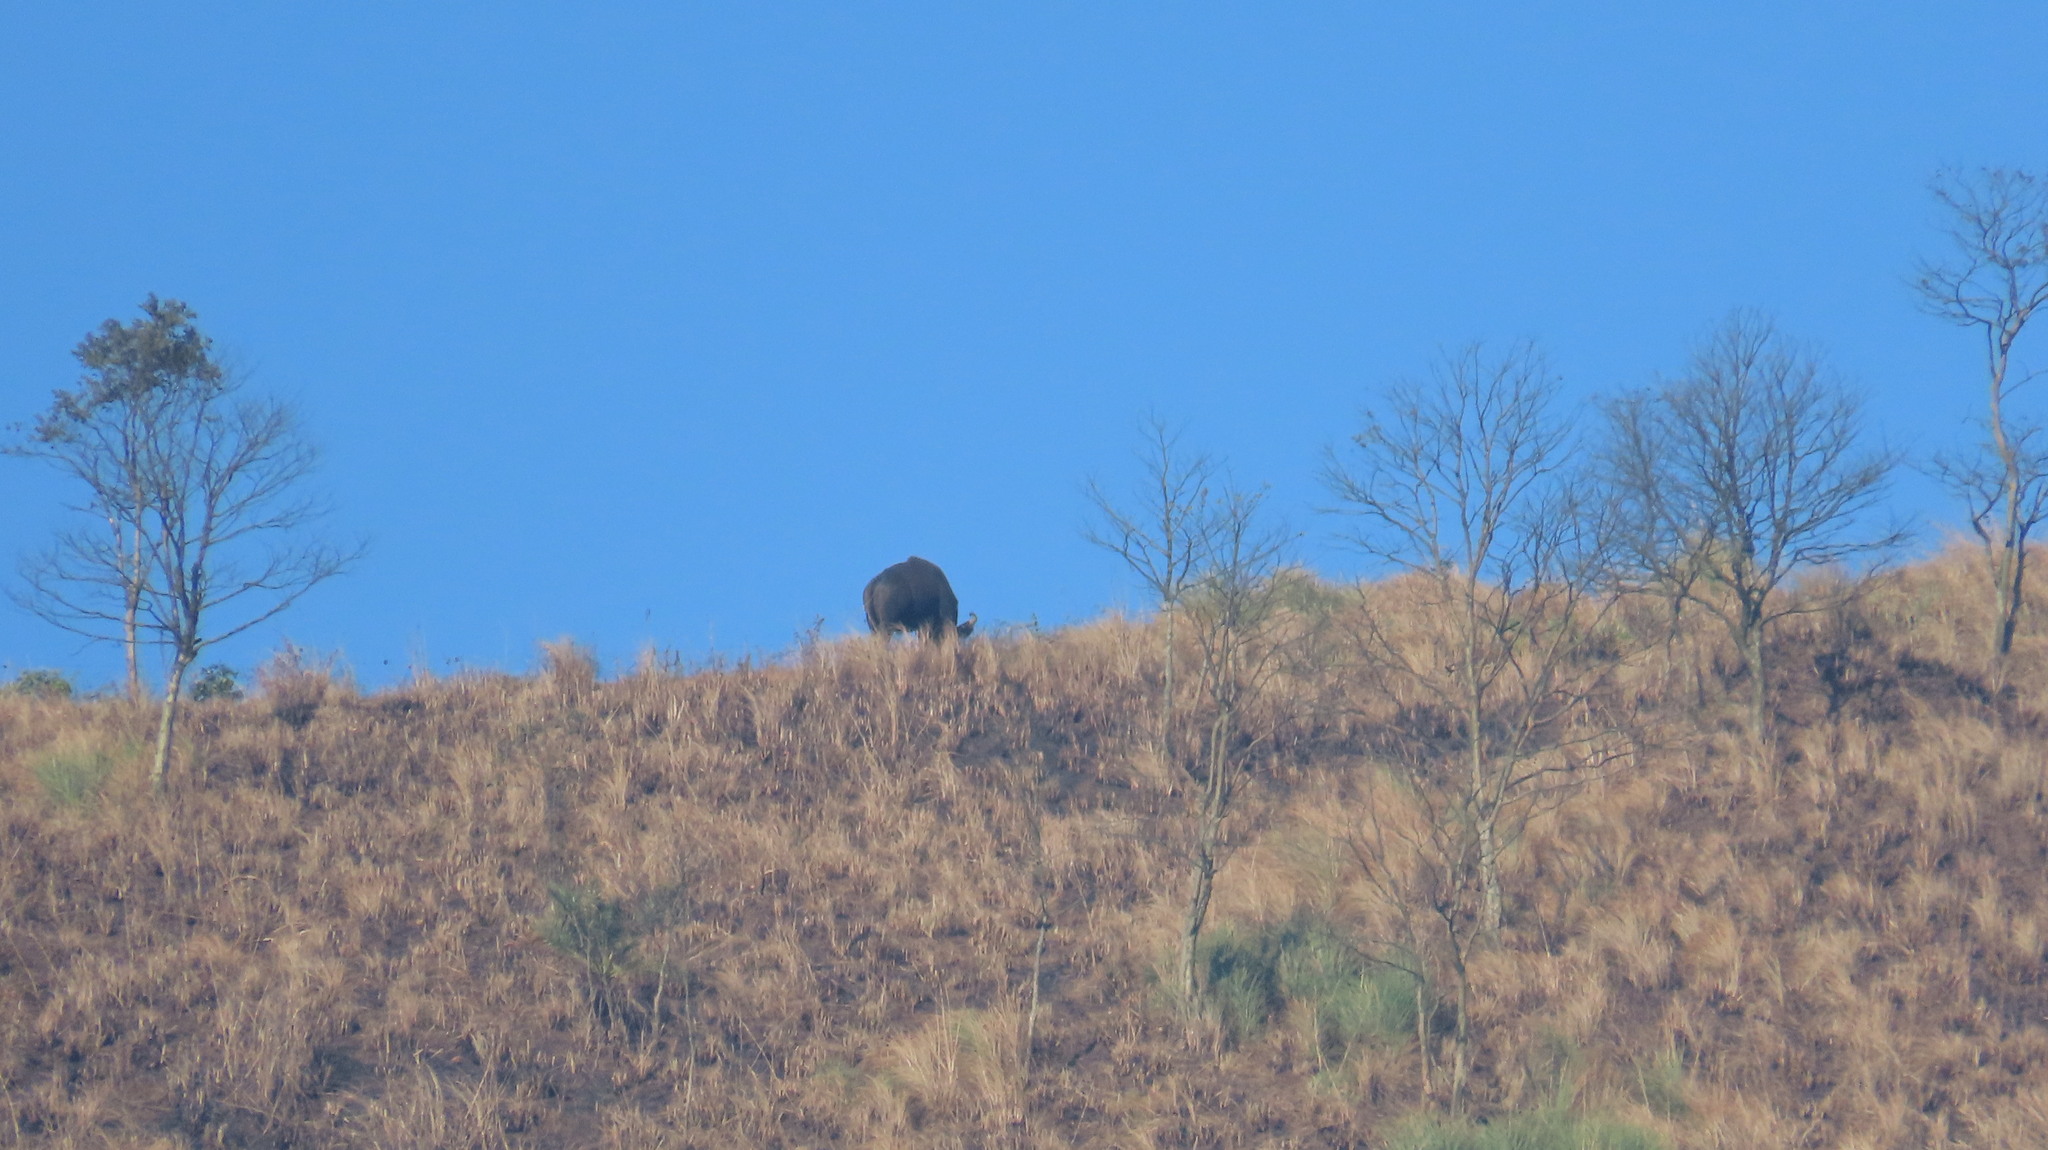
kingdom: Animalia
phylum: Chordata
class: Mammalia
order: Artiodactyla
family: Bovidae
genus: Bos
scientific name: Bos frontalis
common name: Gaur
